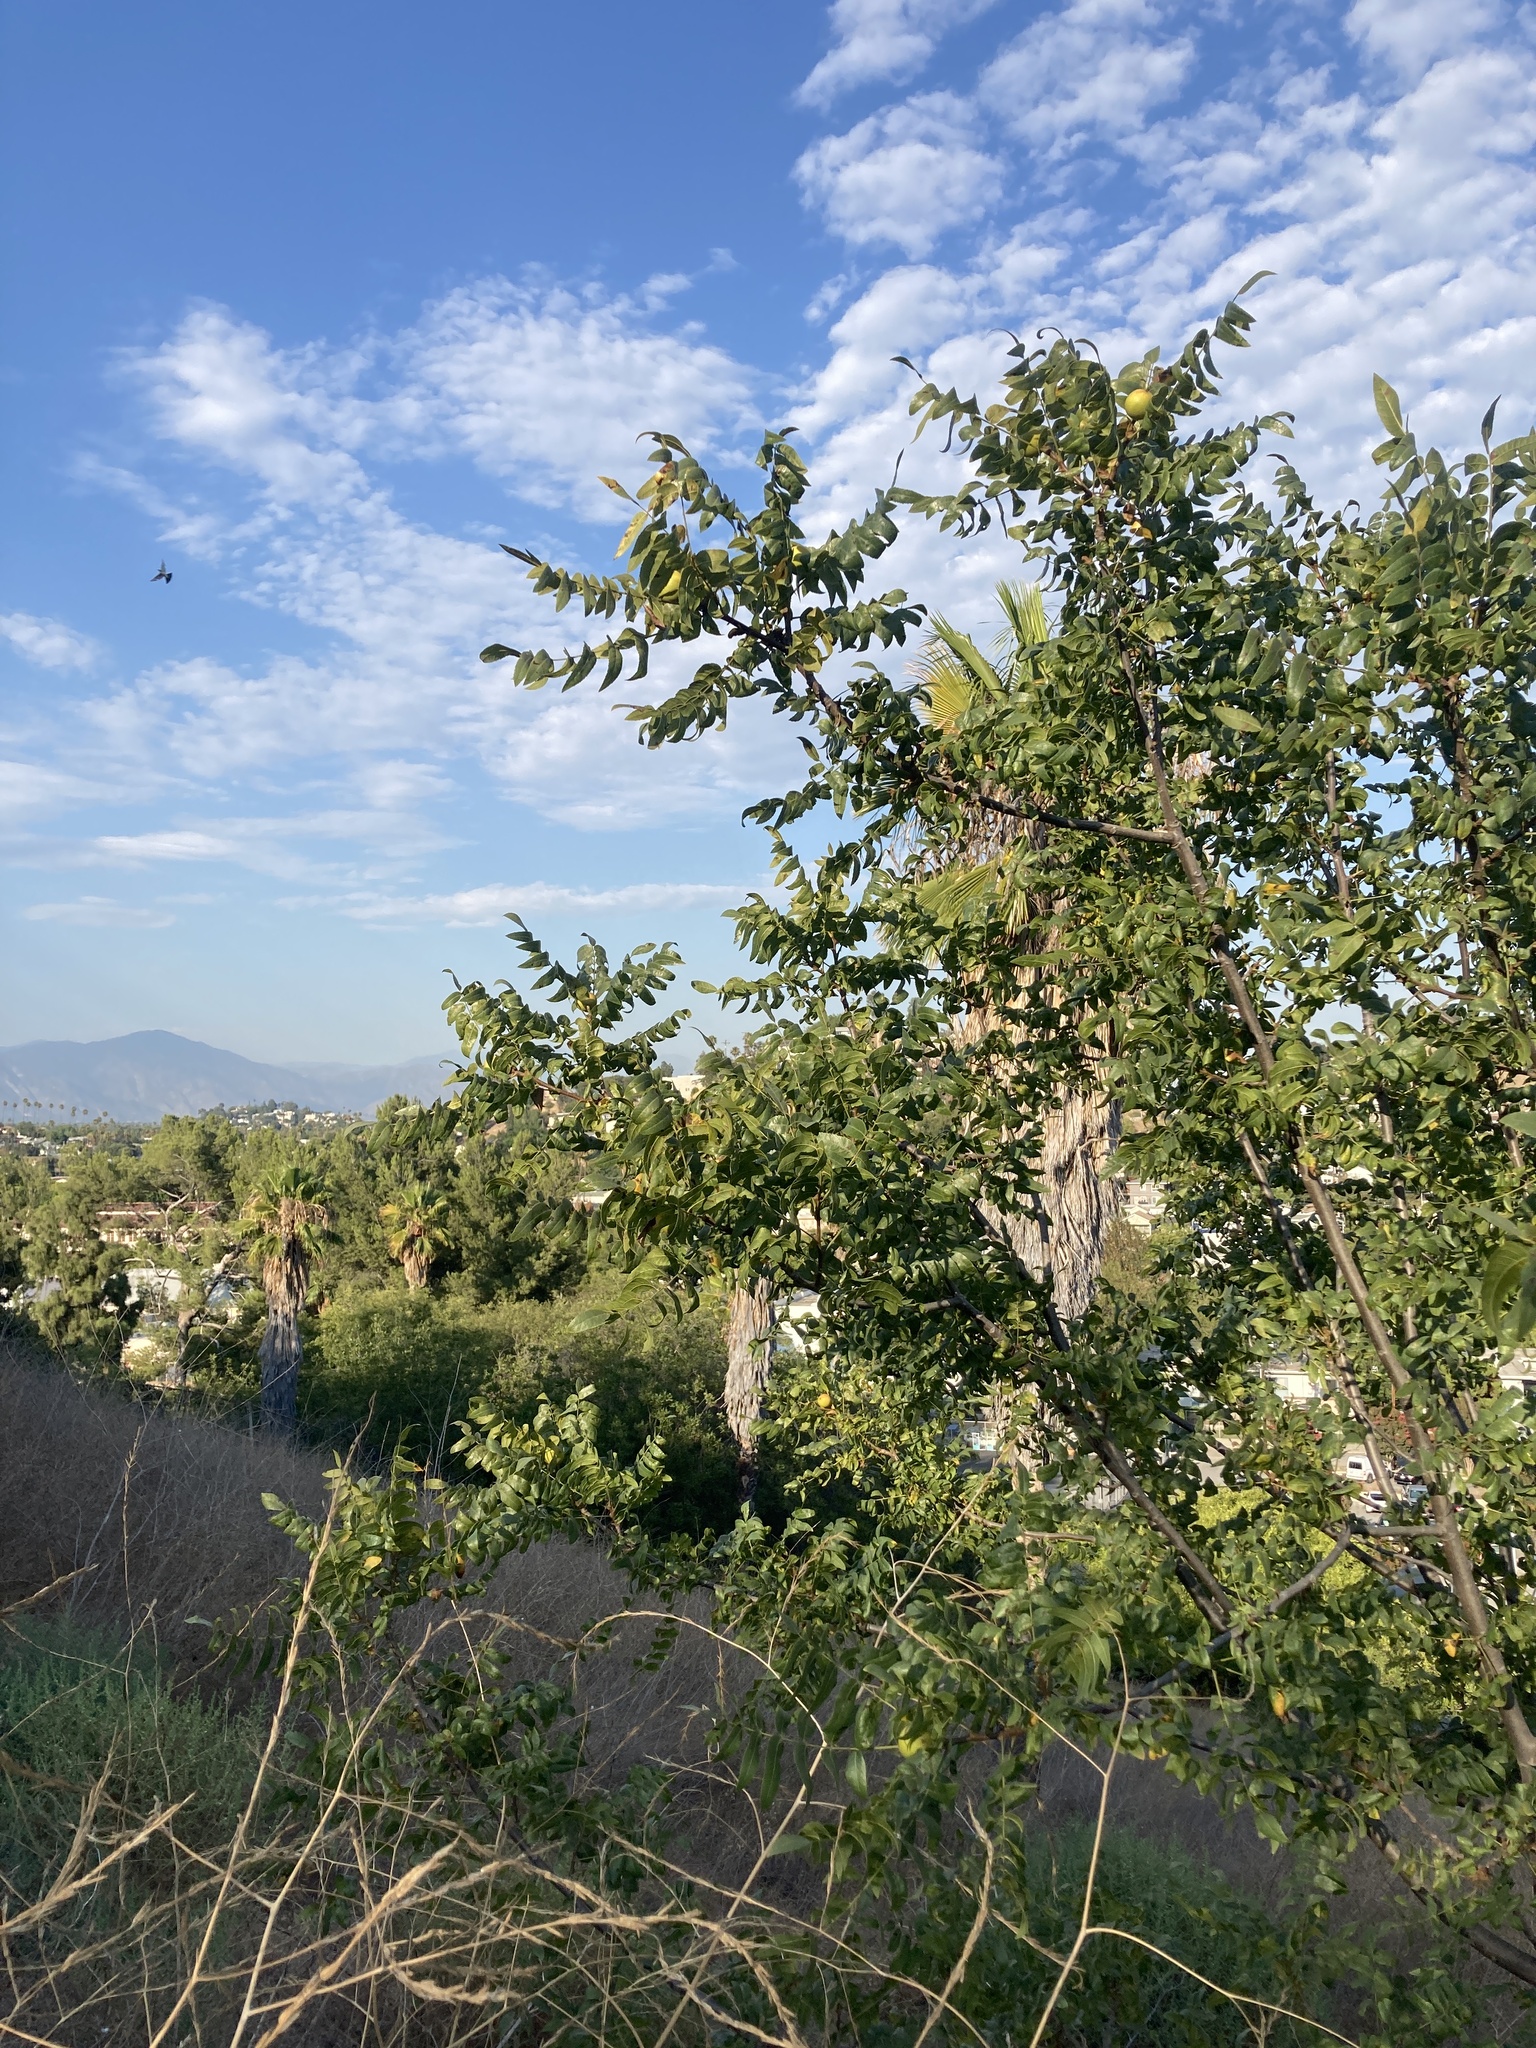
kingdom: Plantae
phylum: Tracheophyta
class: Magnoliopsida
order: Fagales
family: Juglandaceae
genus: Juglans
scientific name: Juglans californica
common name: Southern california black walnut
